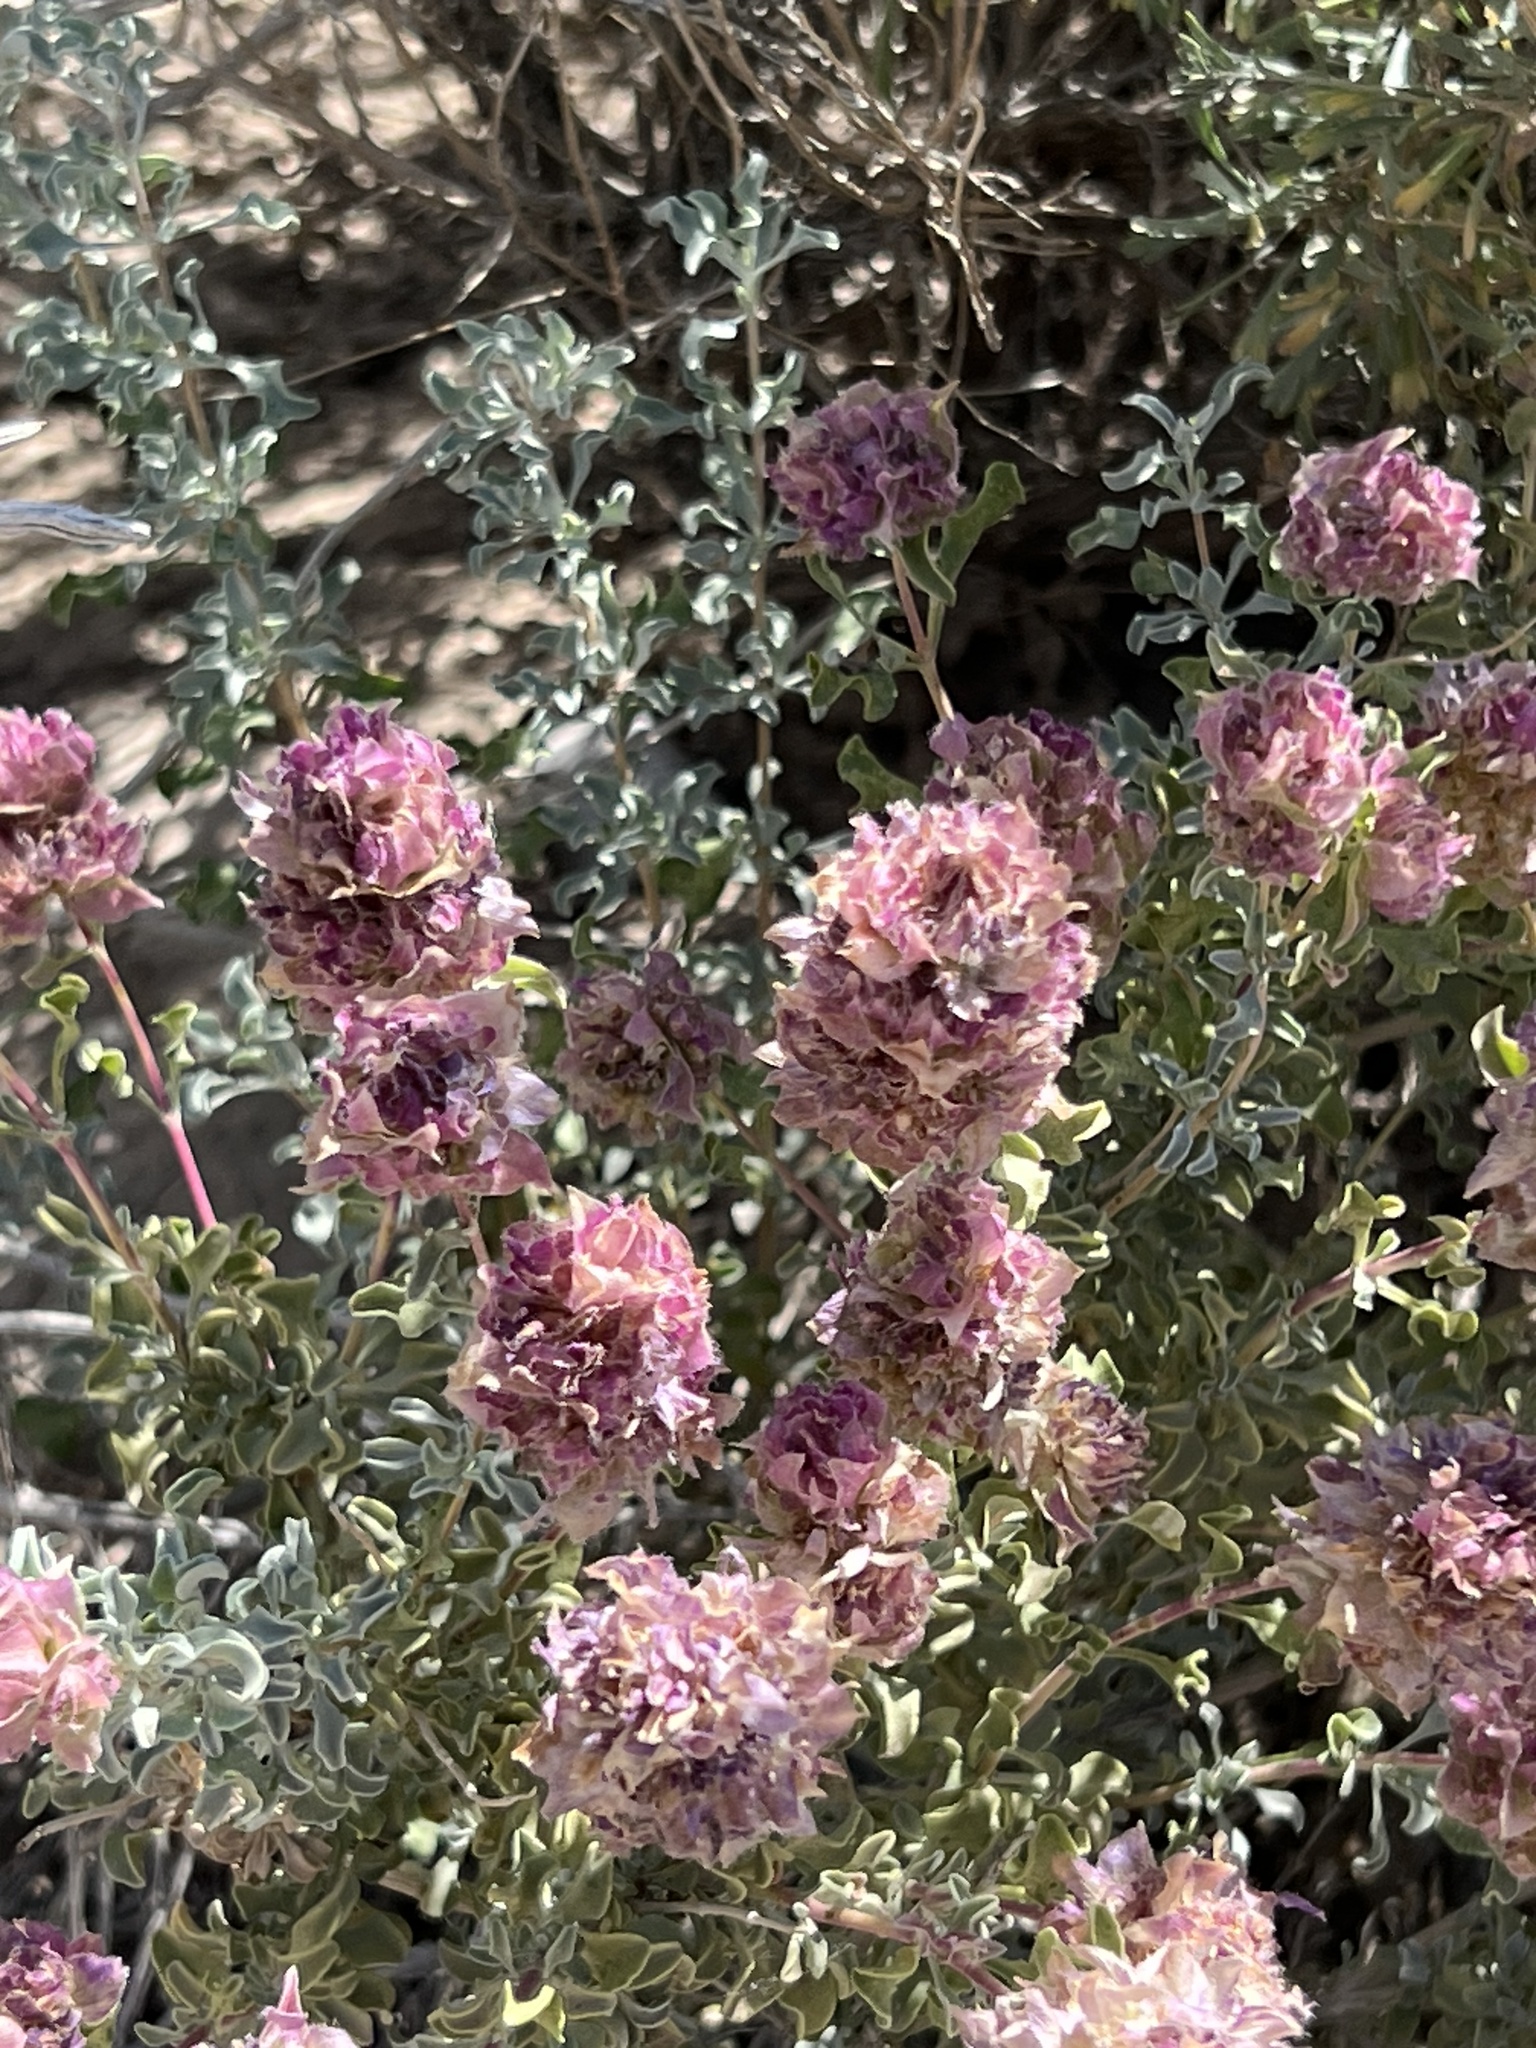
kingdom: Plantae
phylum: Tracheophyta
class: Magnoliopsida
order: Lamiales
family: Lamiaceae
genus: Salvia
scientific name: Salvia dorrii
